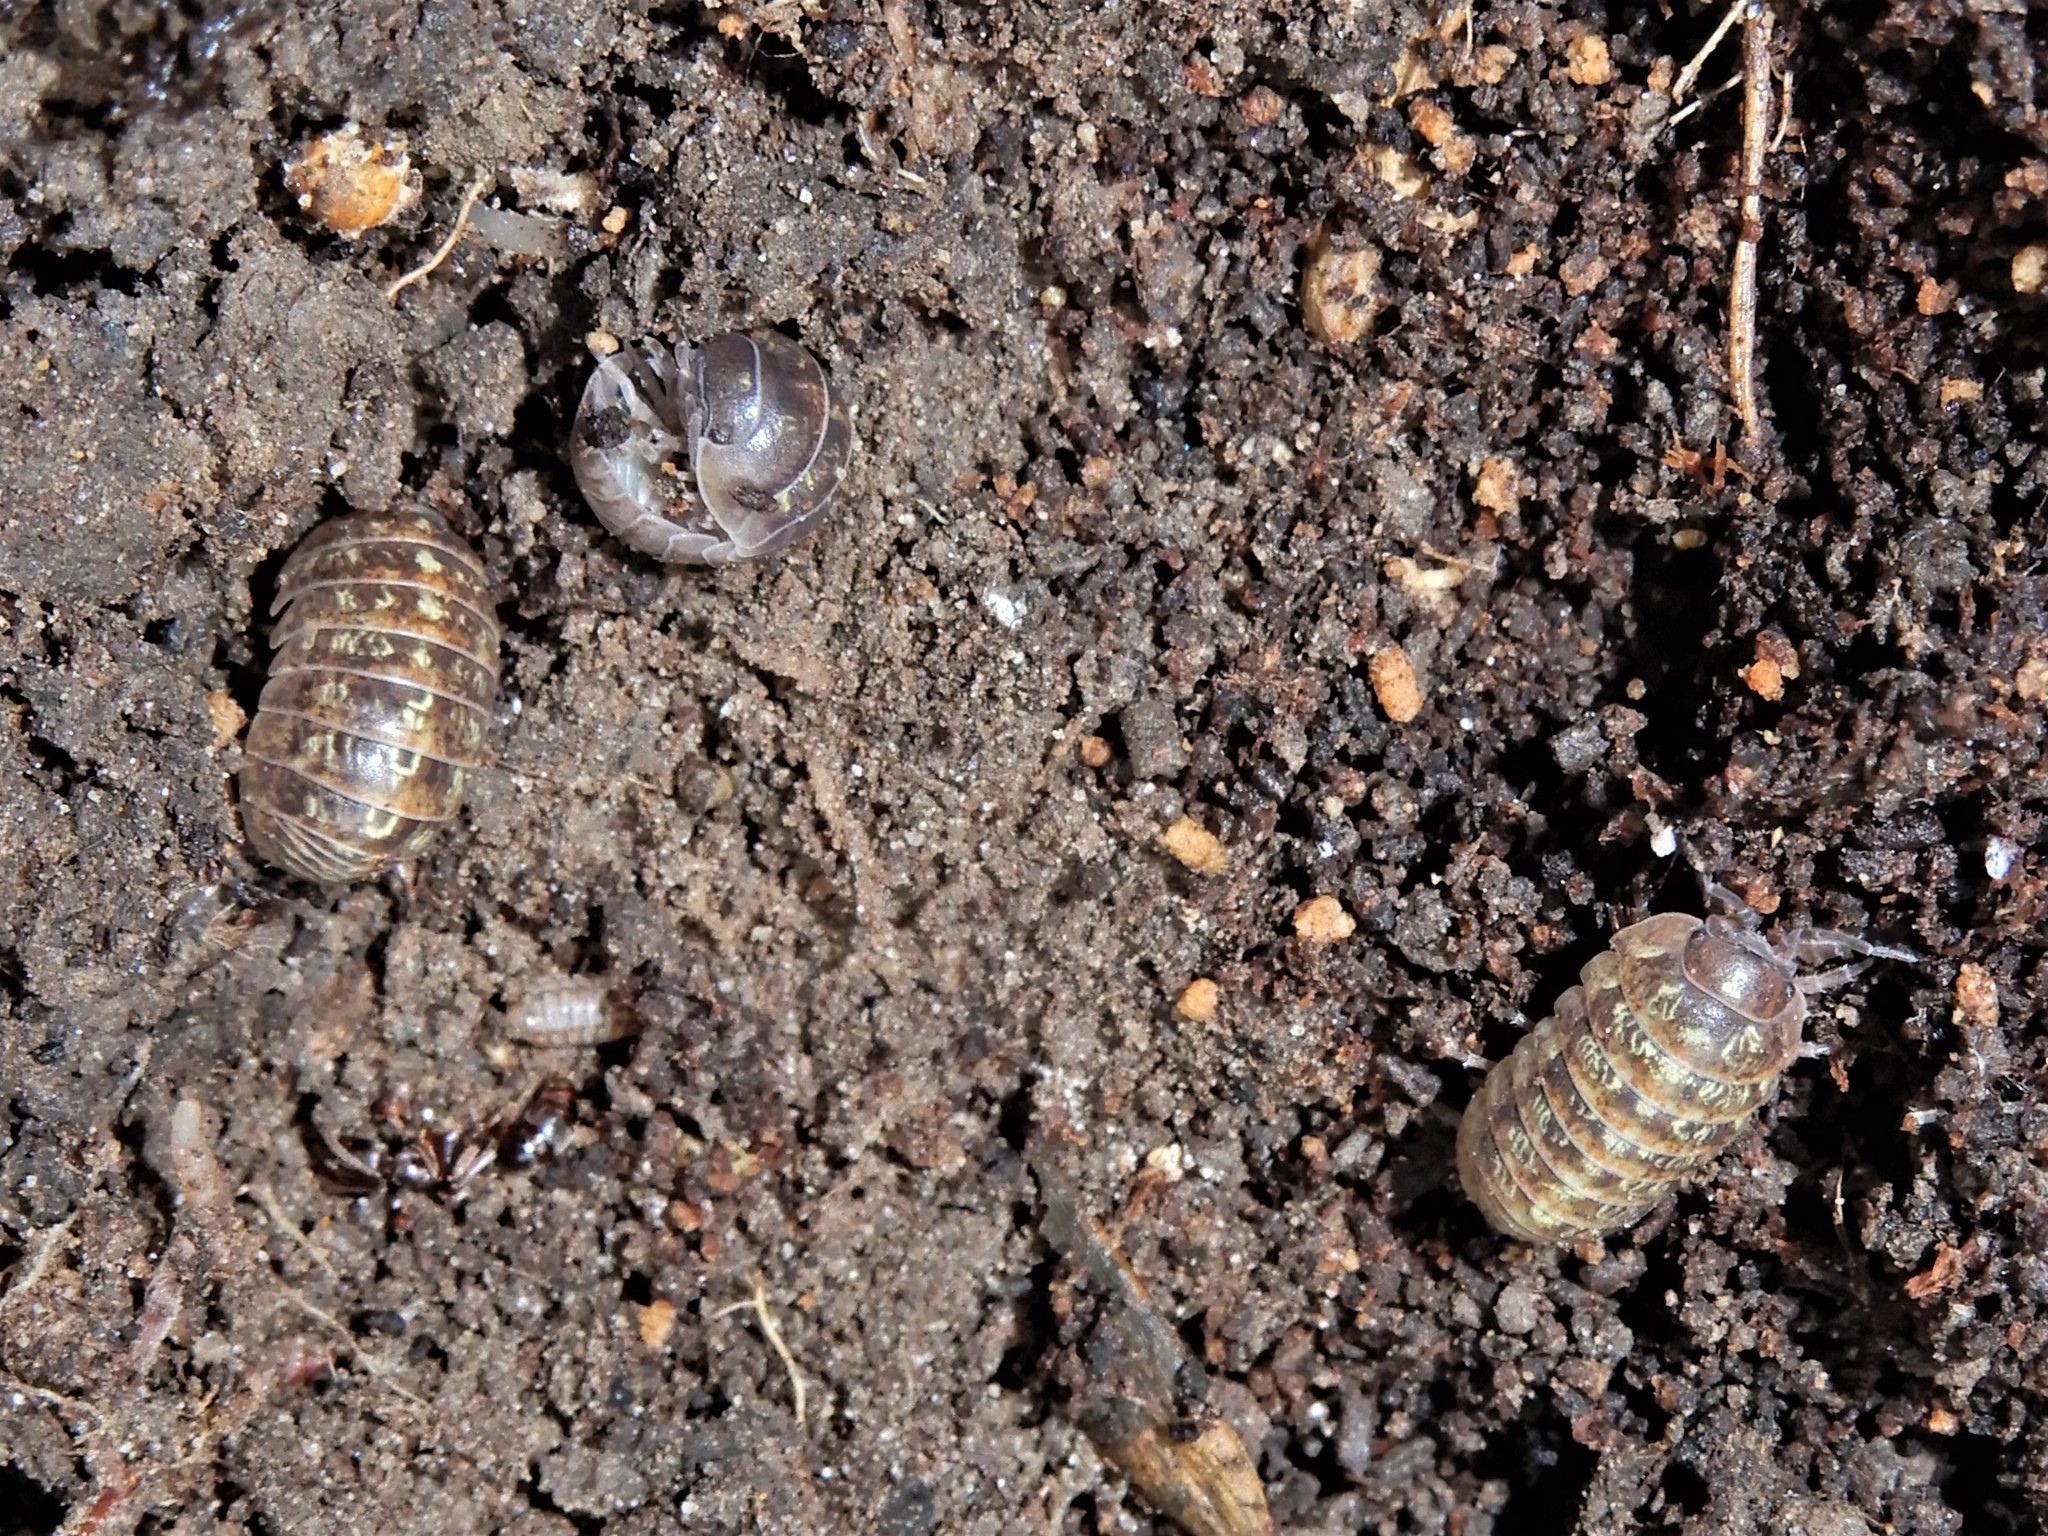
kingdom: Animalia
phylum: Arthropoda
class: Malacostraca
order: Isopoda
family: Armadillidiidae
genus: Armadillidium
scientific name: Armadillidium vulgare
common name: Common pill woodlouse
